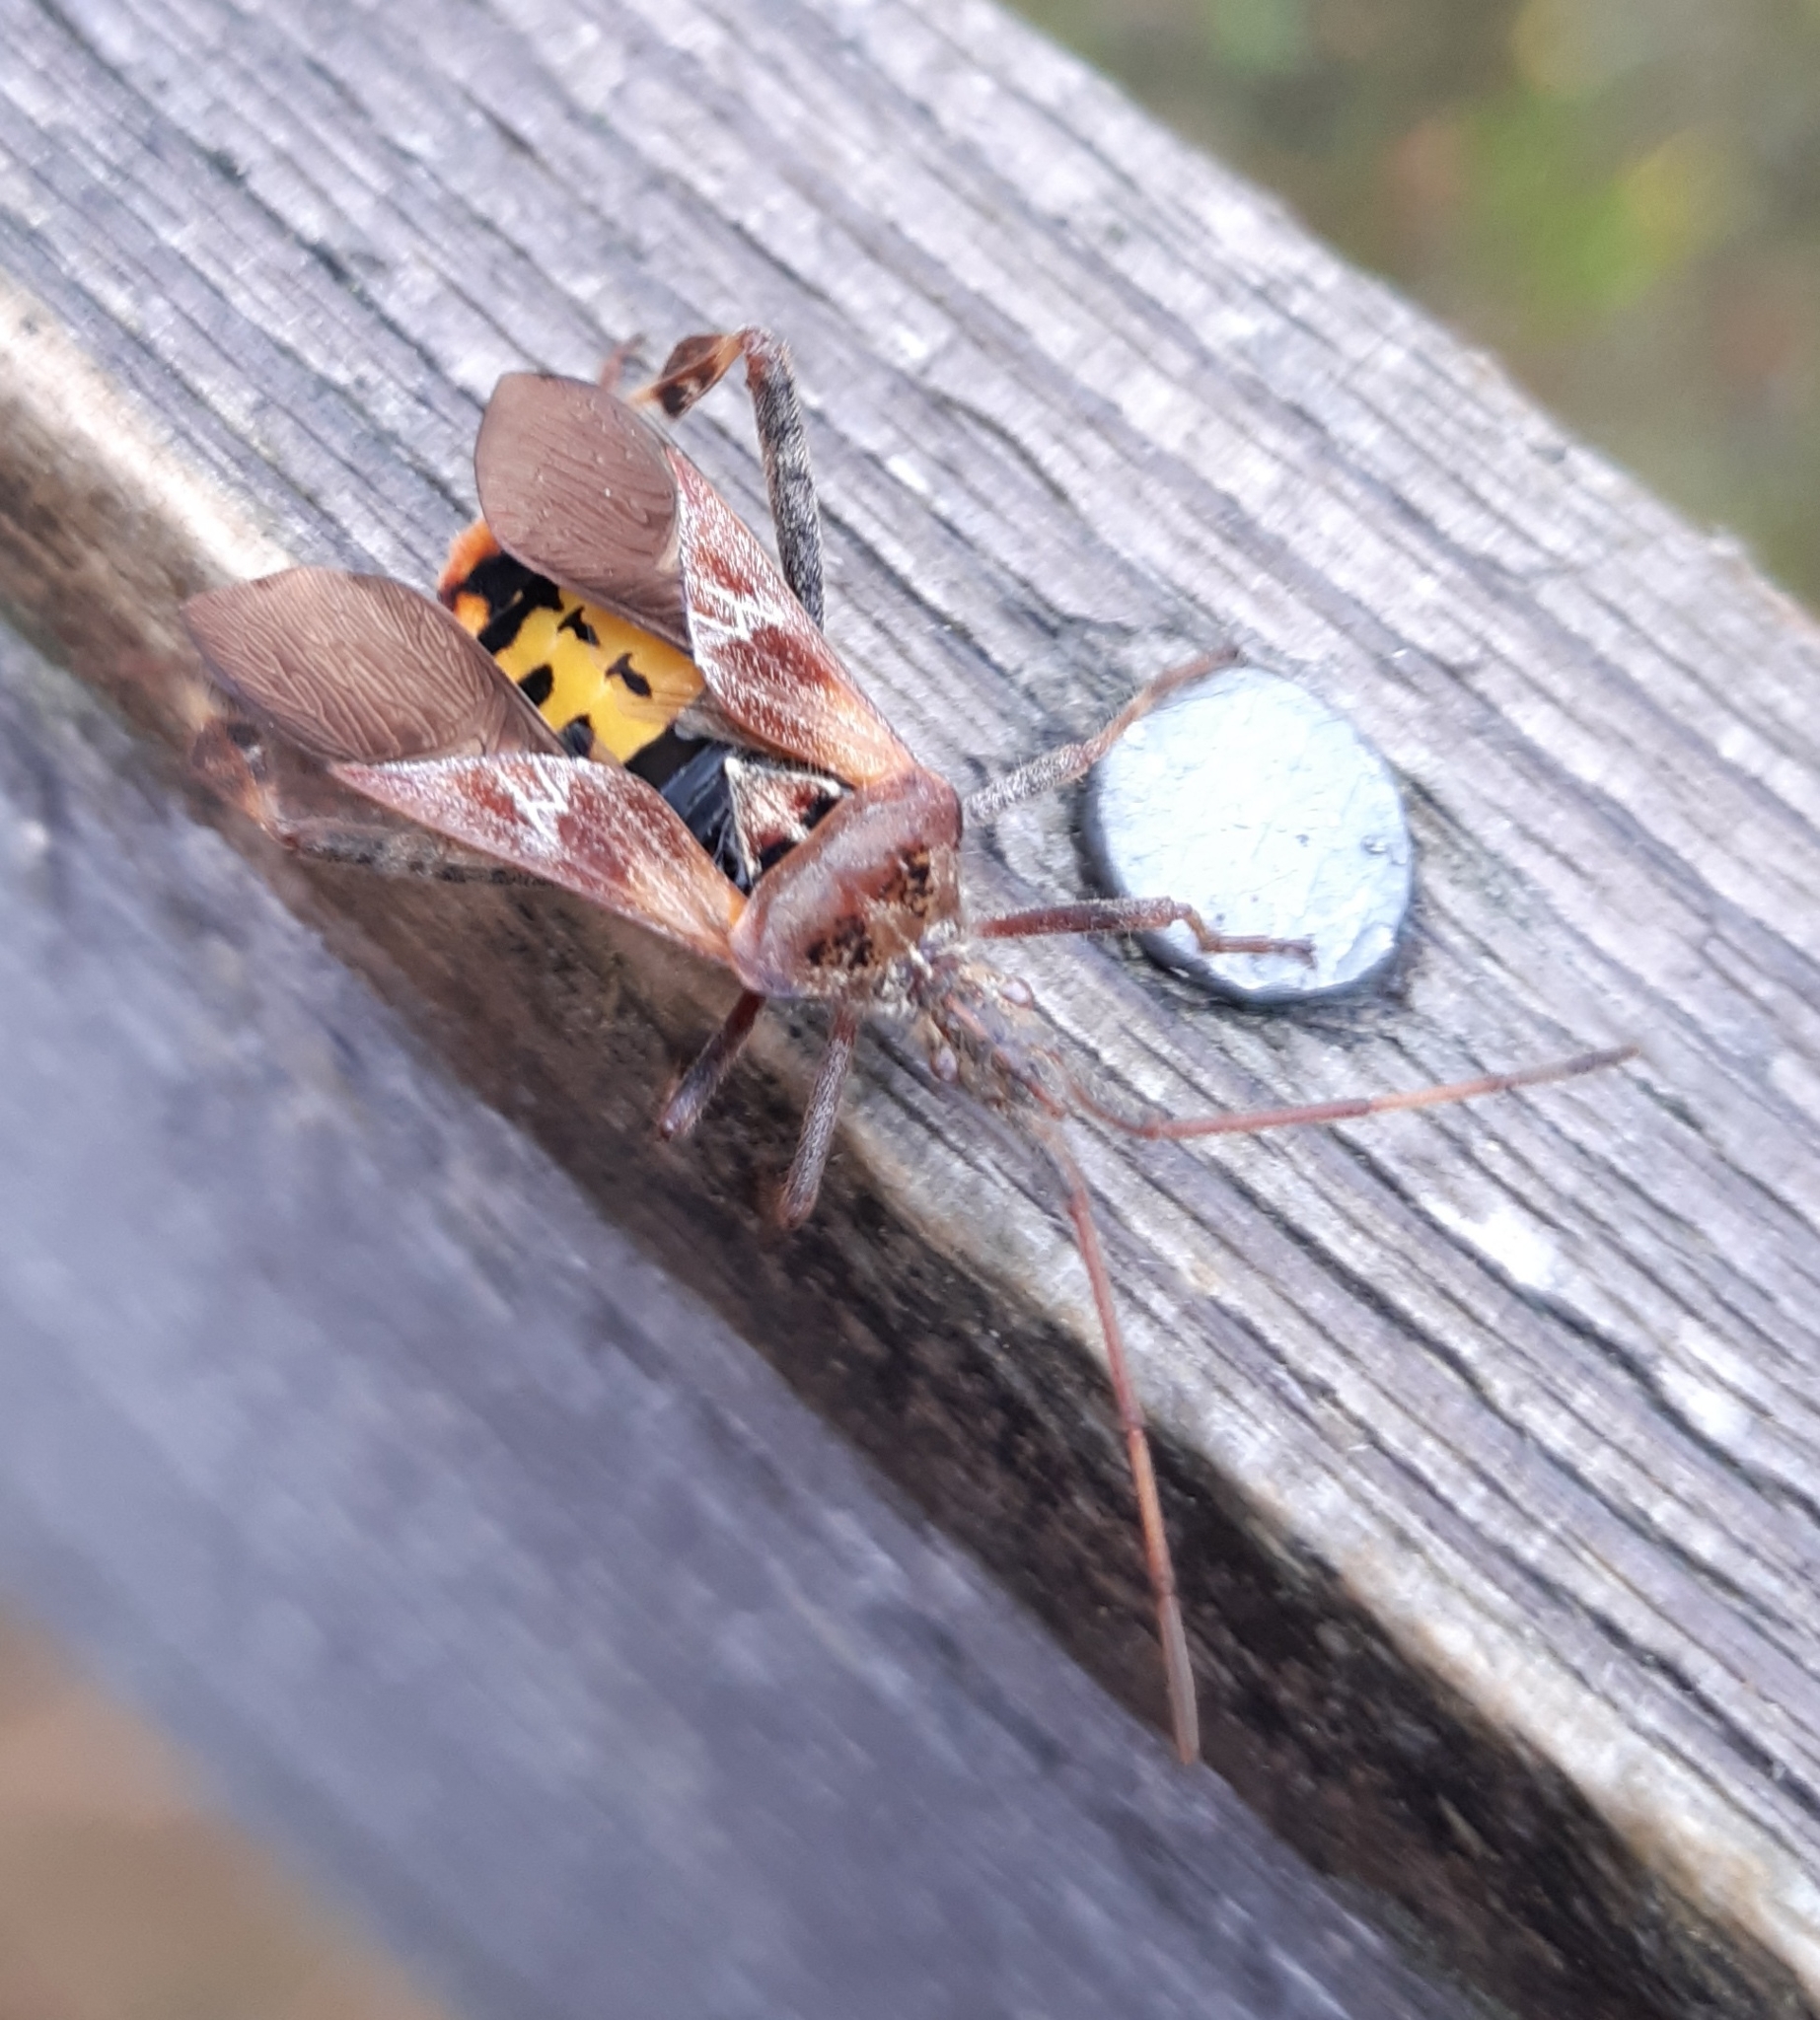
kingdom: Animalia
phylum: Arthropoda
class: Insecta
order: Hemiptera
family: Coreidae
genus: Leptoglossus
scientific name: Leptoglossus occidentalis
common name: Western conifer-seed bug
